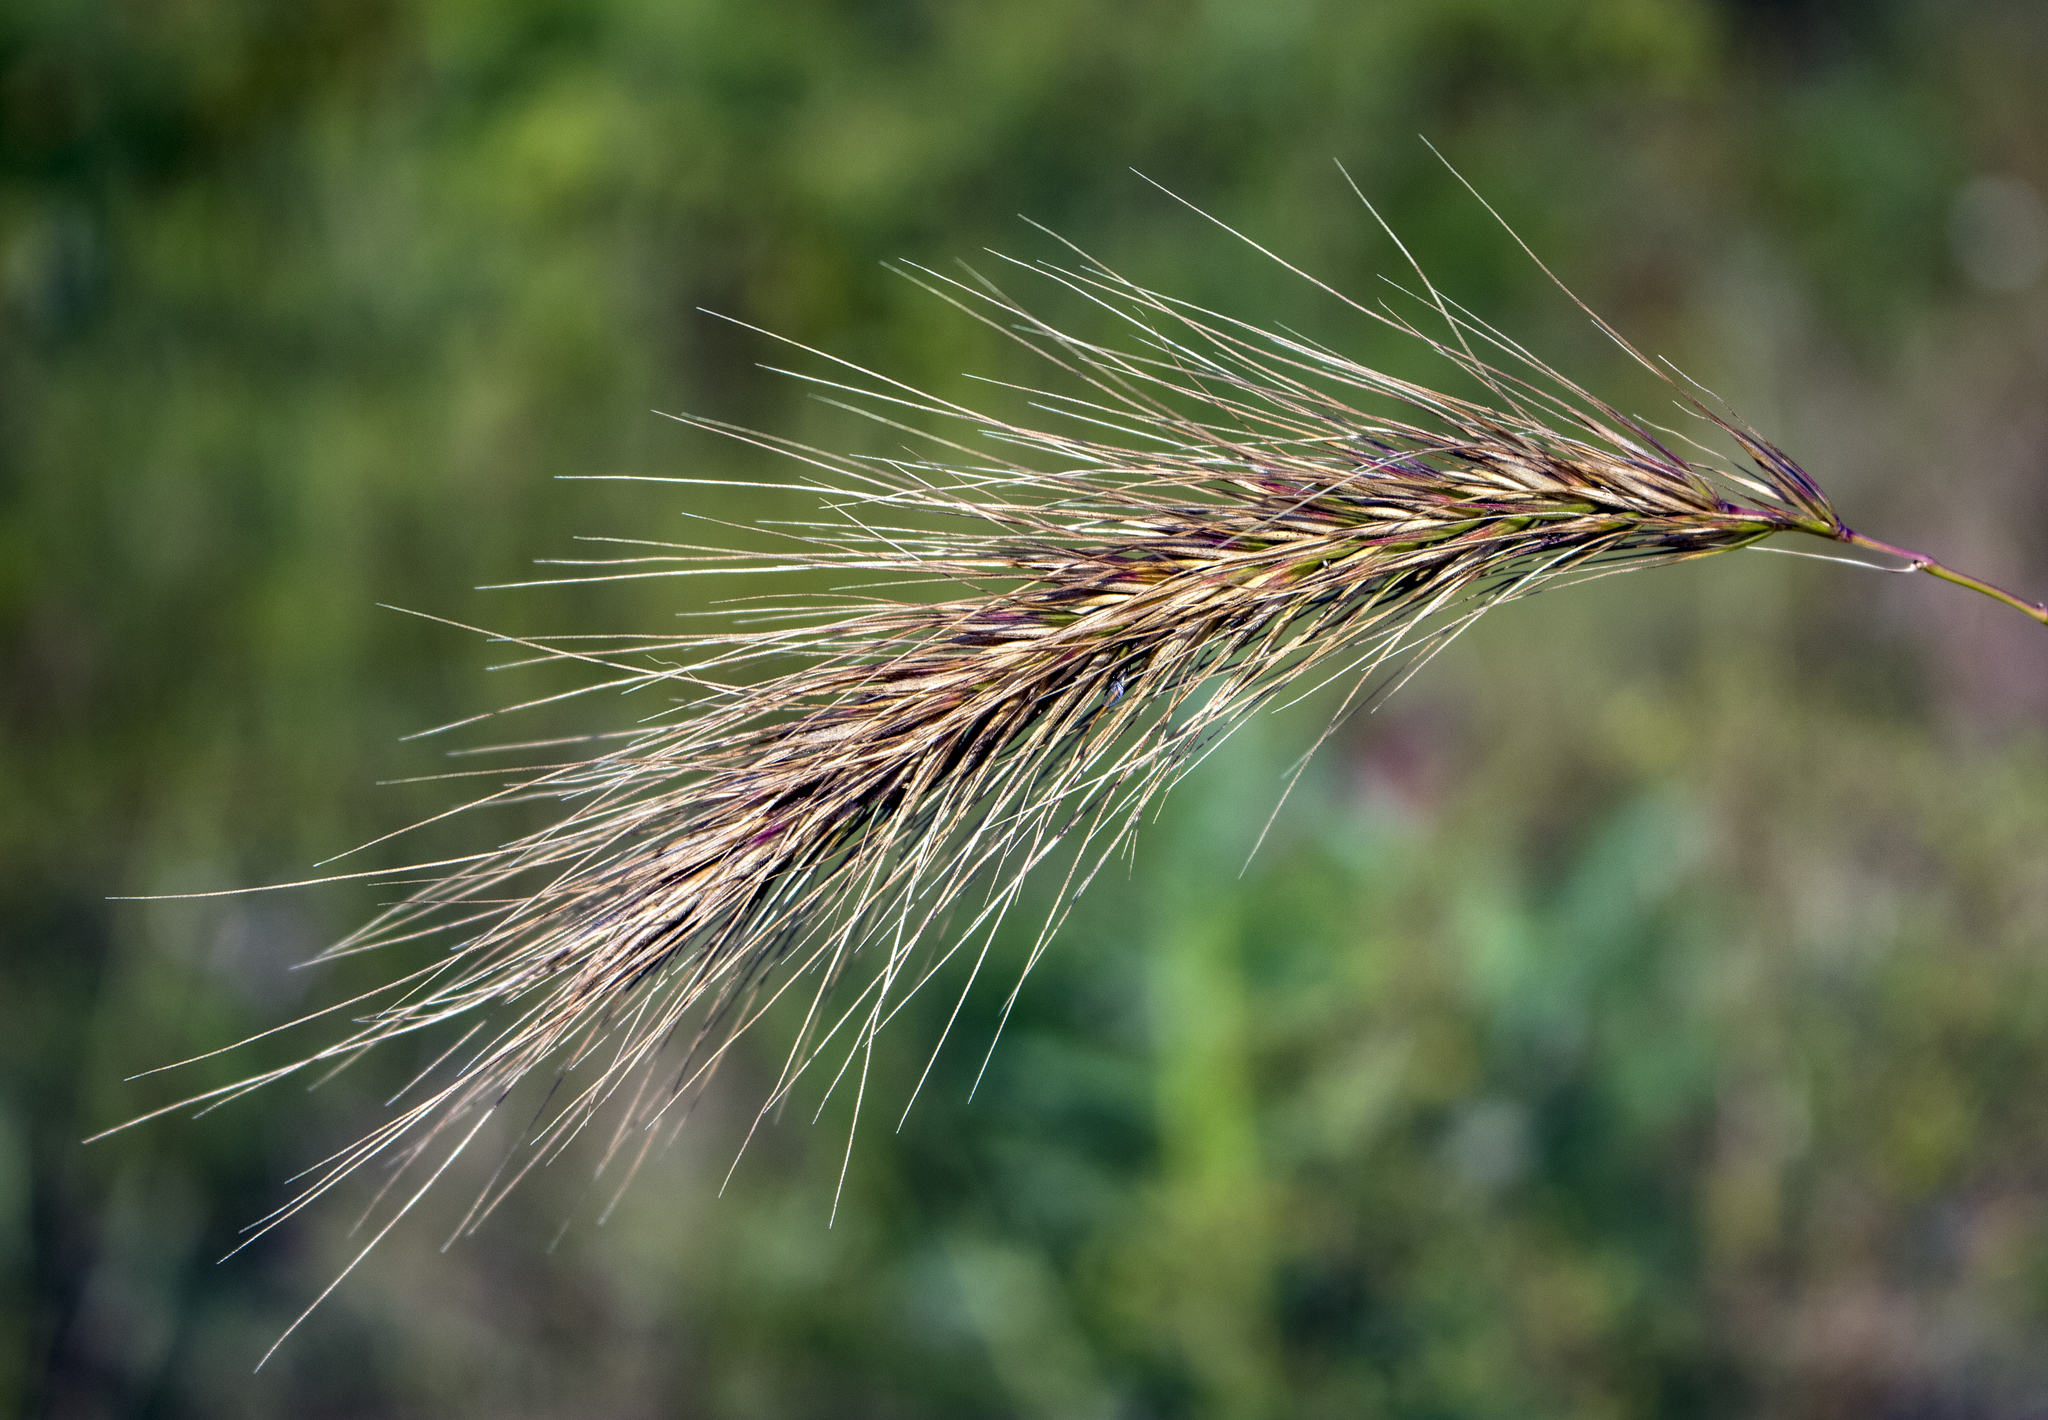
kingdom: Plantae
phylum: Tracheophyta
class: Liliopsida
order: Poales
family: Poaceae
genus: Elymus
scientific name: Elymus canadensis
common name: Canada wild rye
